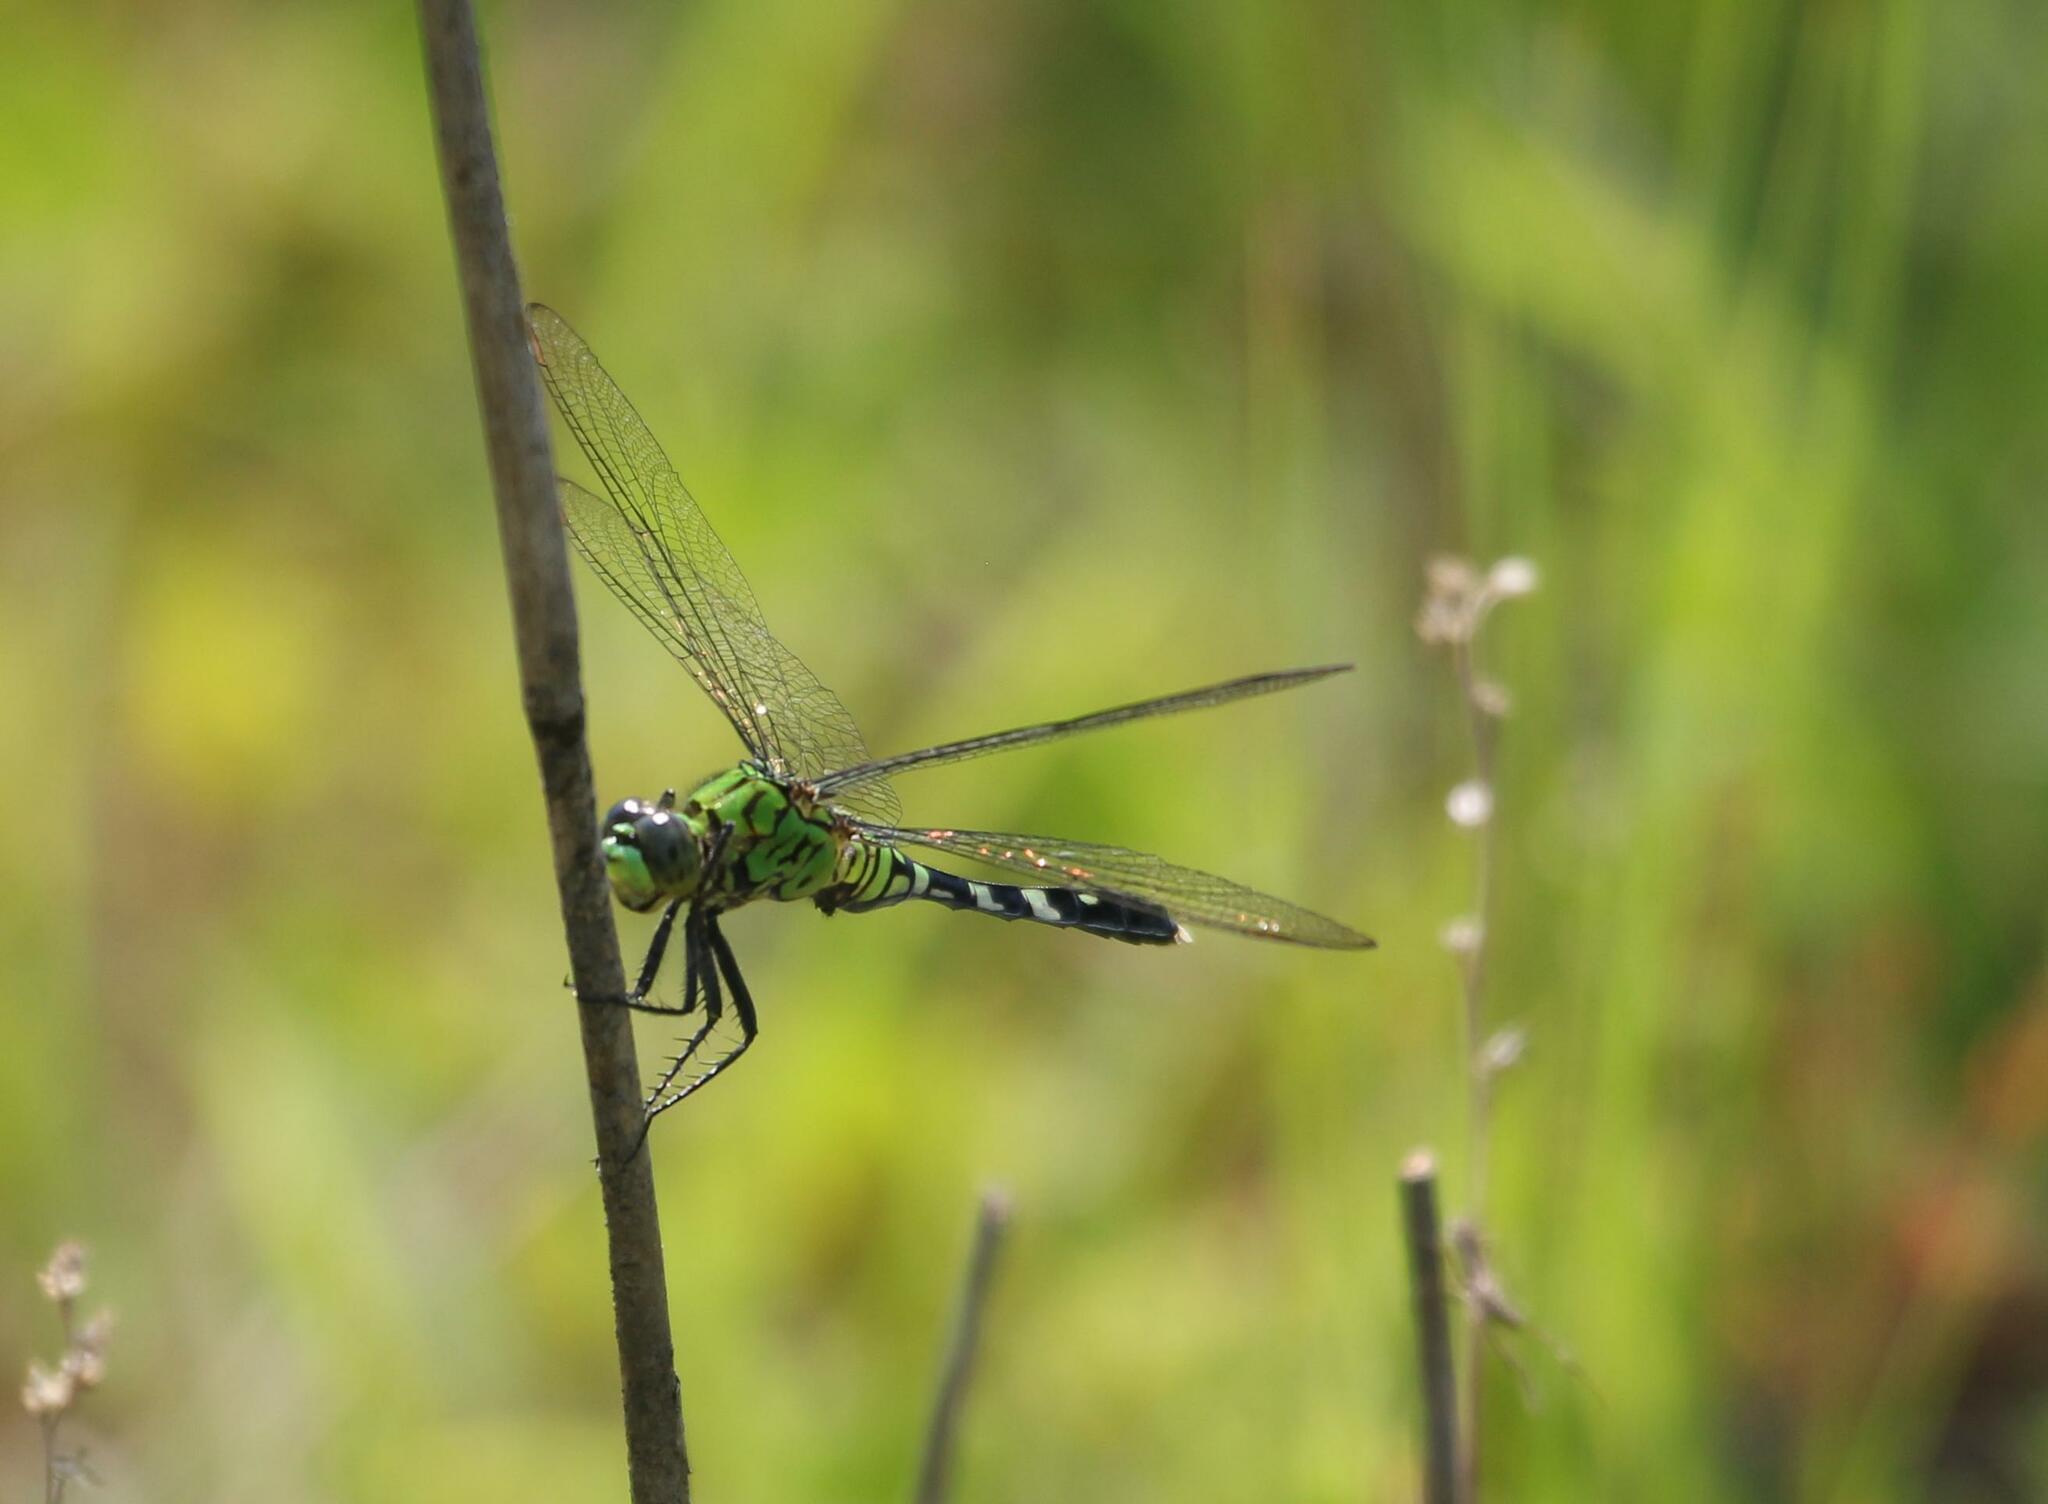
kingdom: Animalia
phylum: Arthropoda
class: Insecta
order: Odonata
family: Libellulidae
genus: Erythemis
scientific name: Erythemis simplicicollis
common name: Eastern pondhawk
